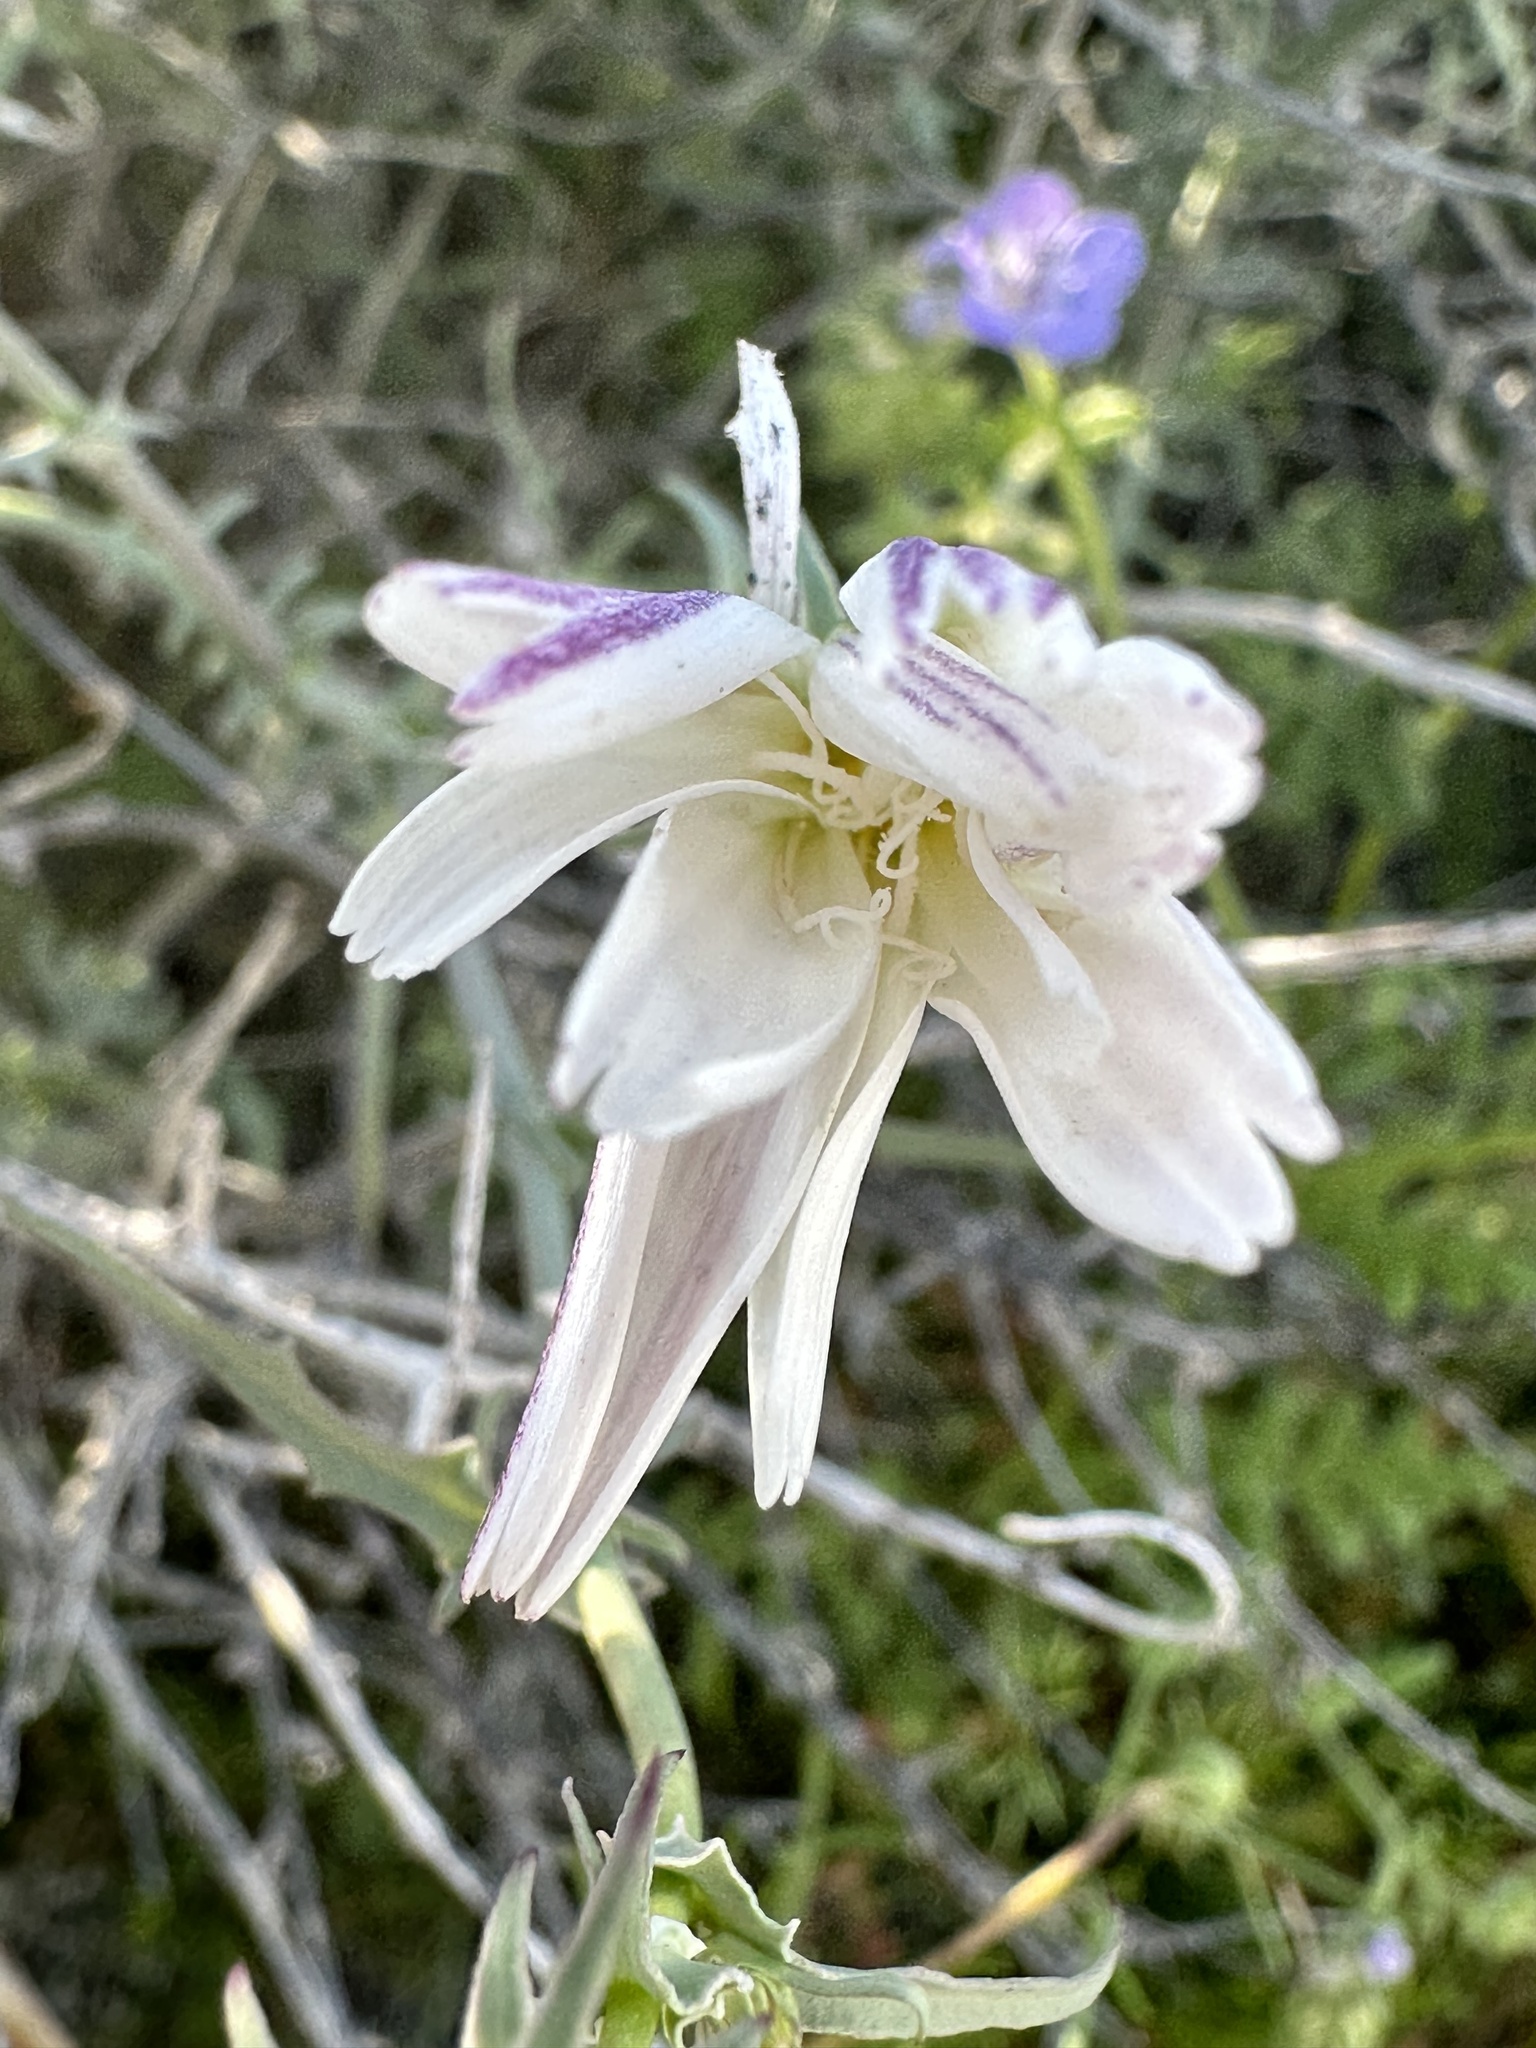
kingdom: Plantae
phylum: Tracheophyta
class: Magnoliopsida
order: Asterales
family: Asteraceae
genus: Rafinesquia
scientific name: Rafinesquia neomexicana
